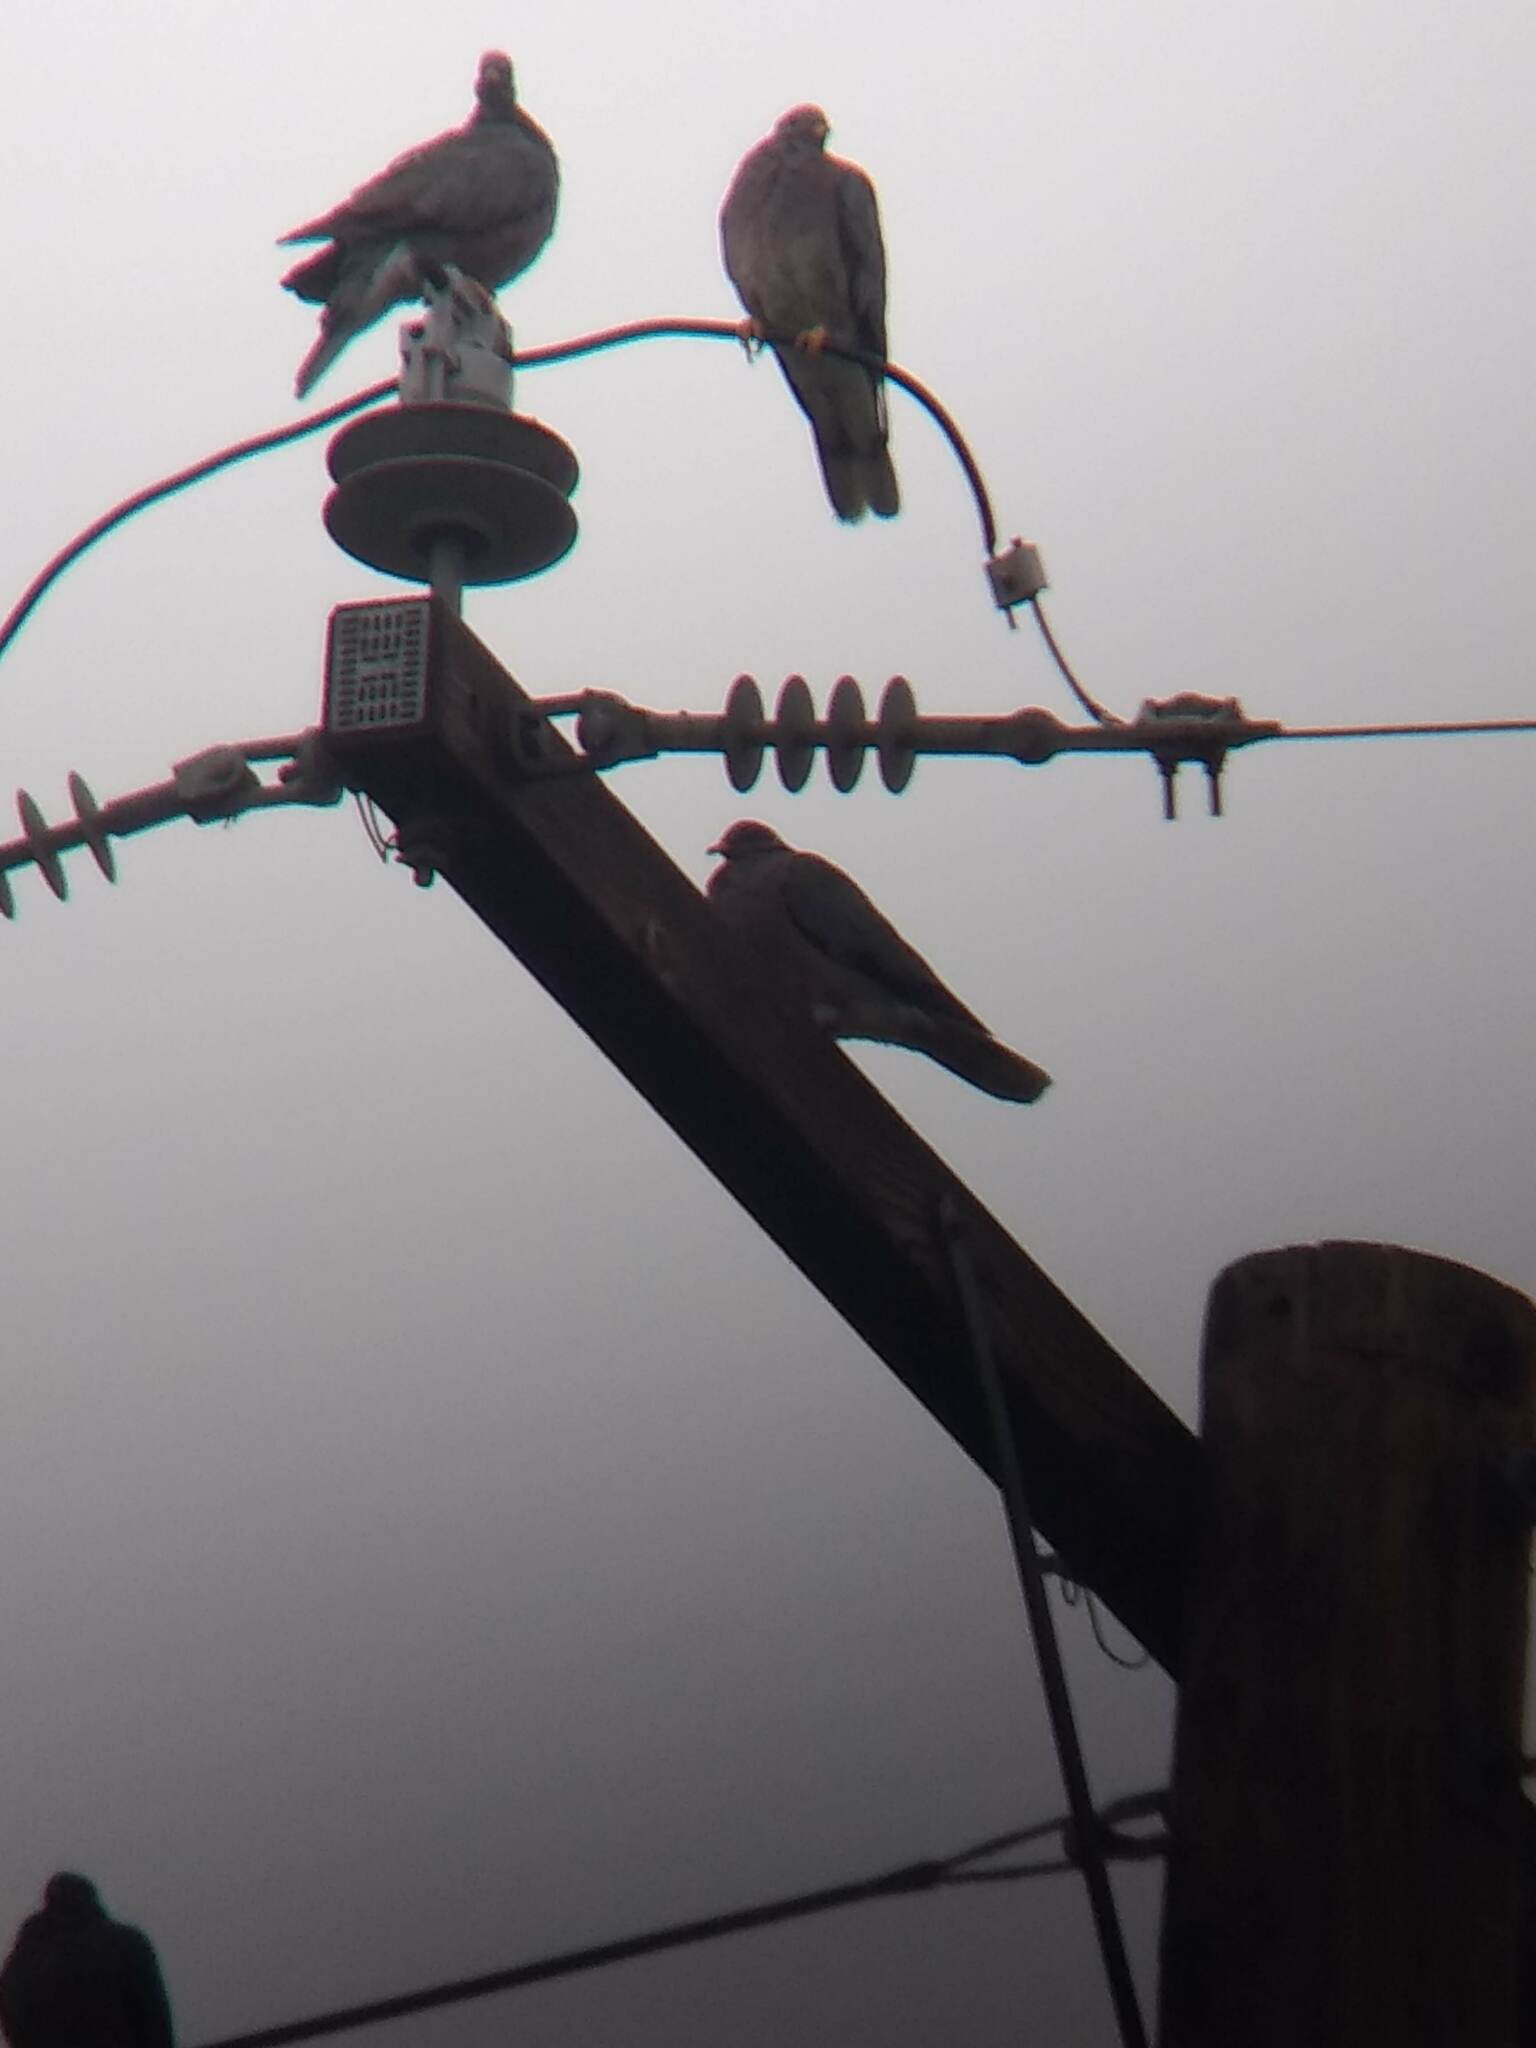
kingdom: Animalia
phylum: Chordata
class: Aves
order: Columbiformes
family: Columbidae
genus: Patagioenas
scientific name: Patagioenas fasciata
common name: Band-tailed pigeon
